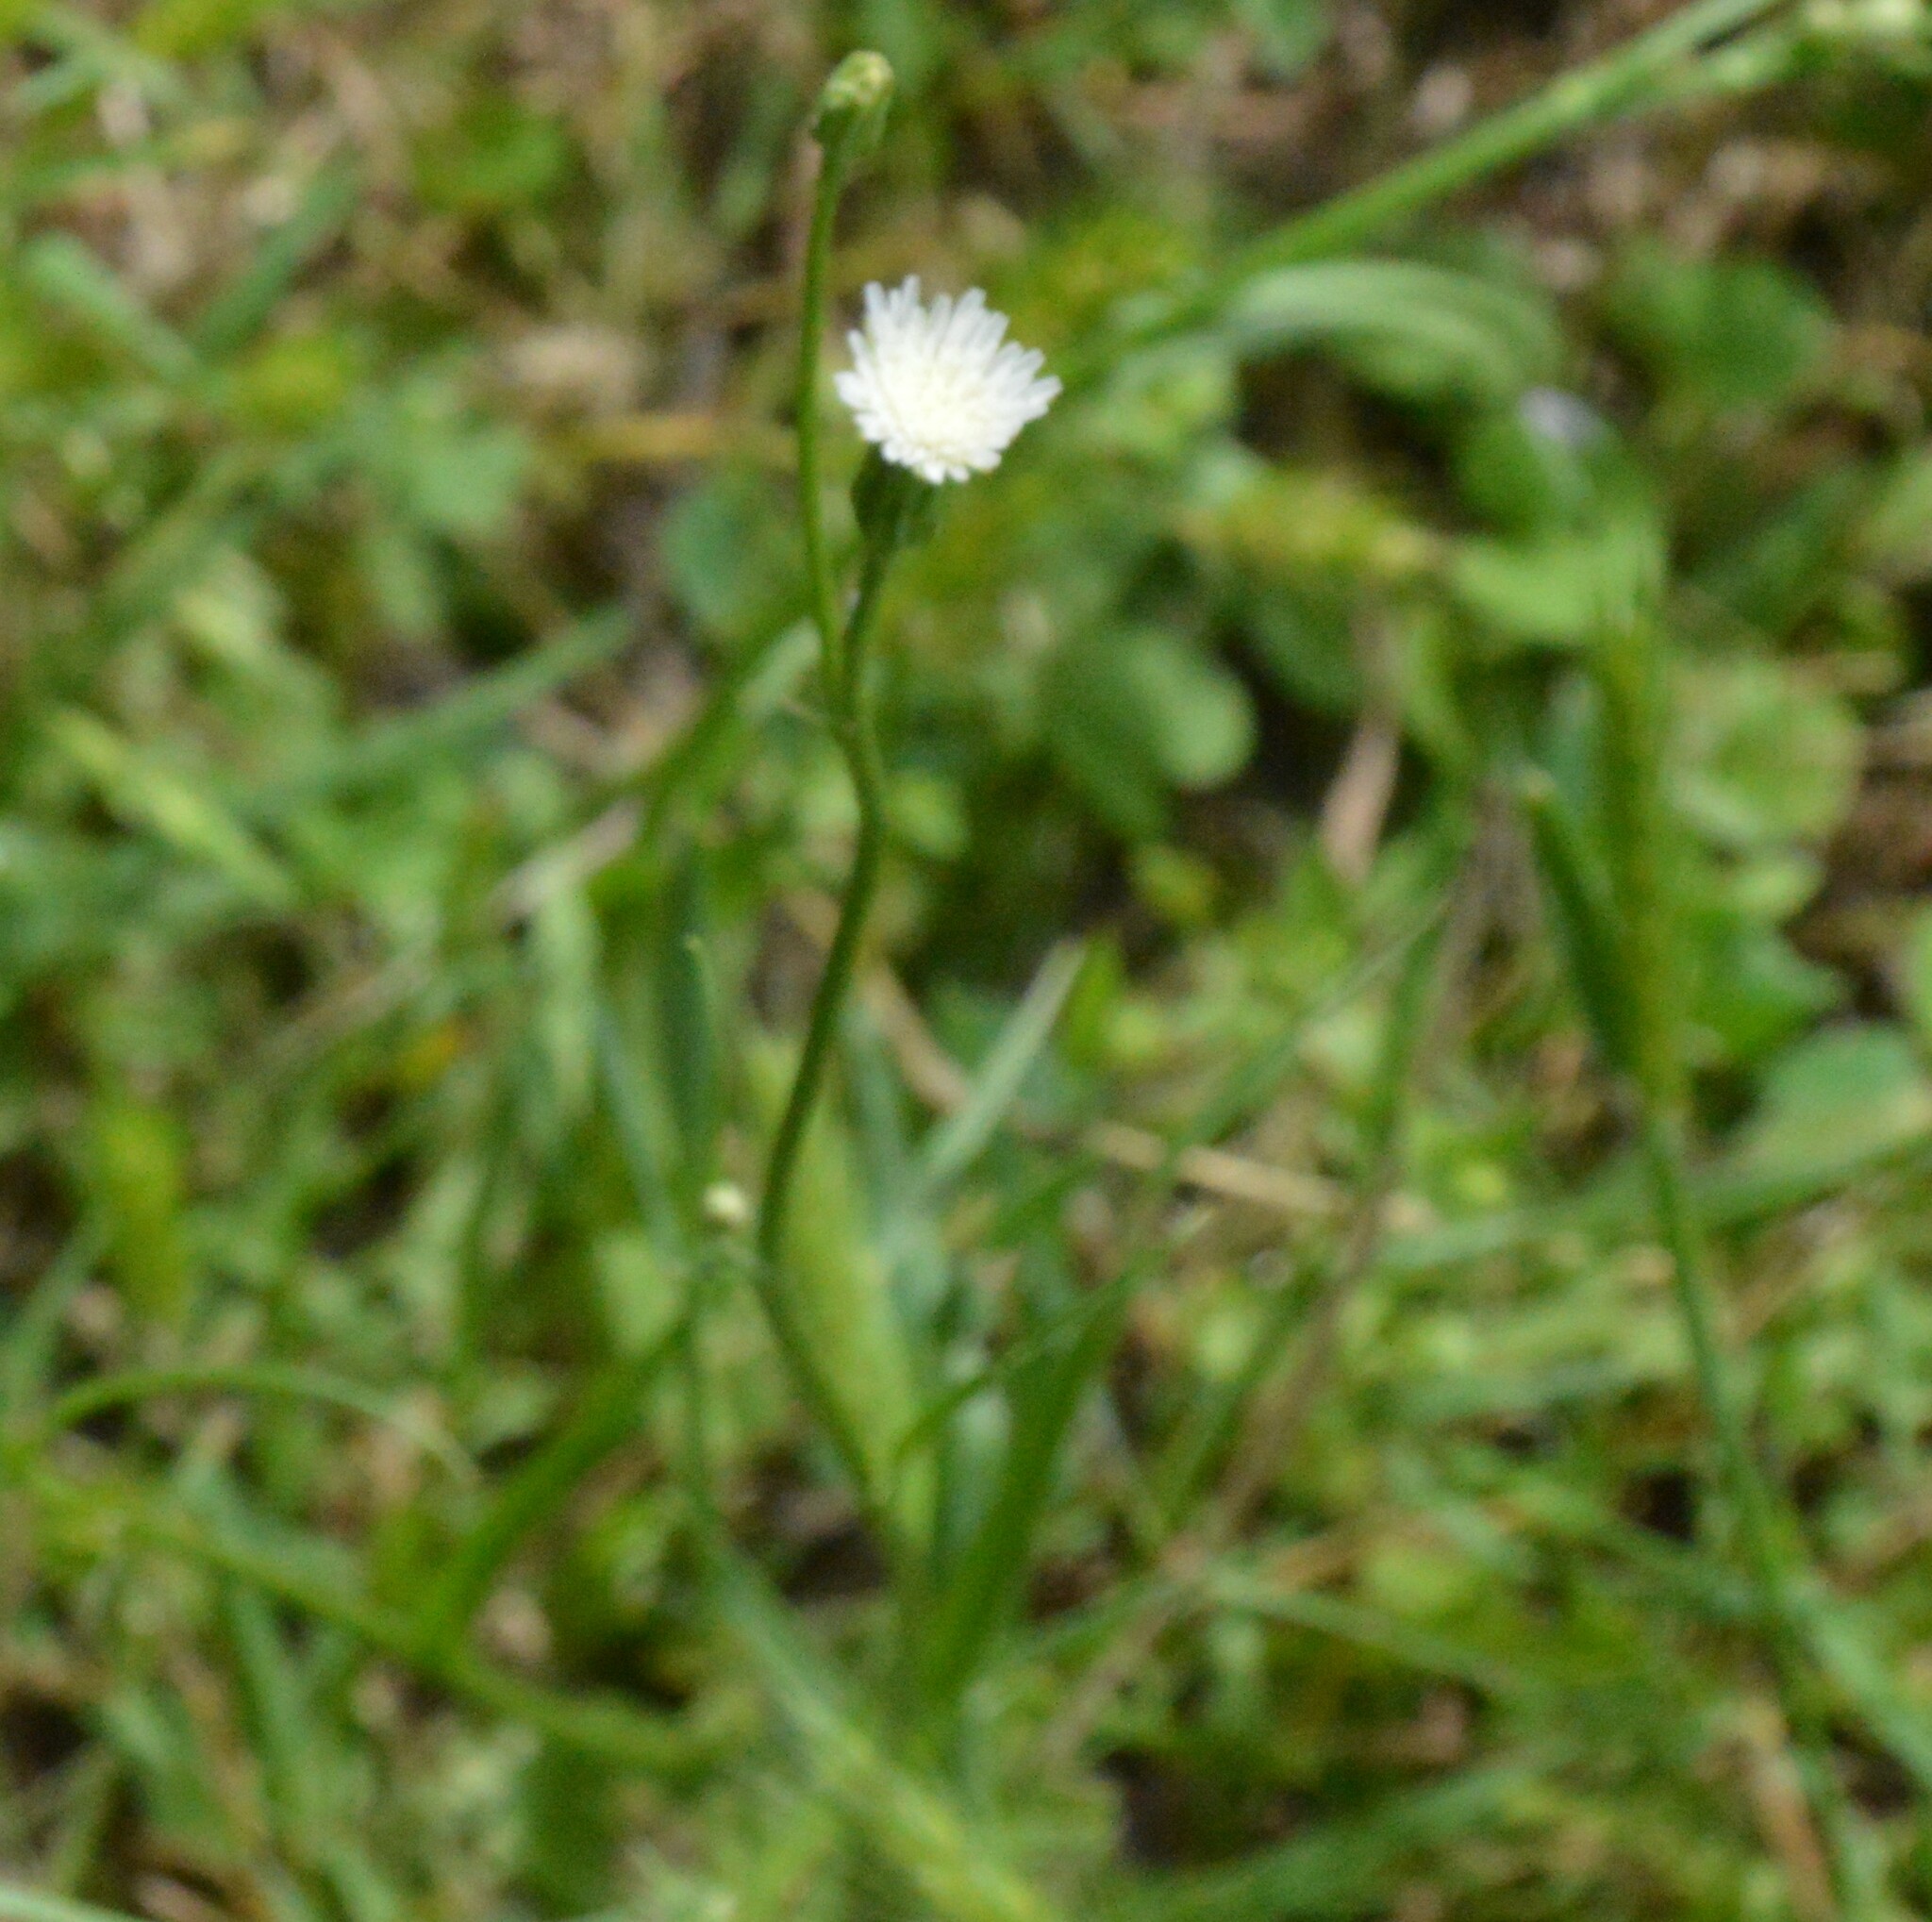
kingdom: Plantae
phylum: Tracheophyta
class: Magnoliopsida
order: Asterales
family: Asteraceae
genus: Hypochaeris
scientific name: Hypochaeris albiflora
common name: White flatweed
